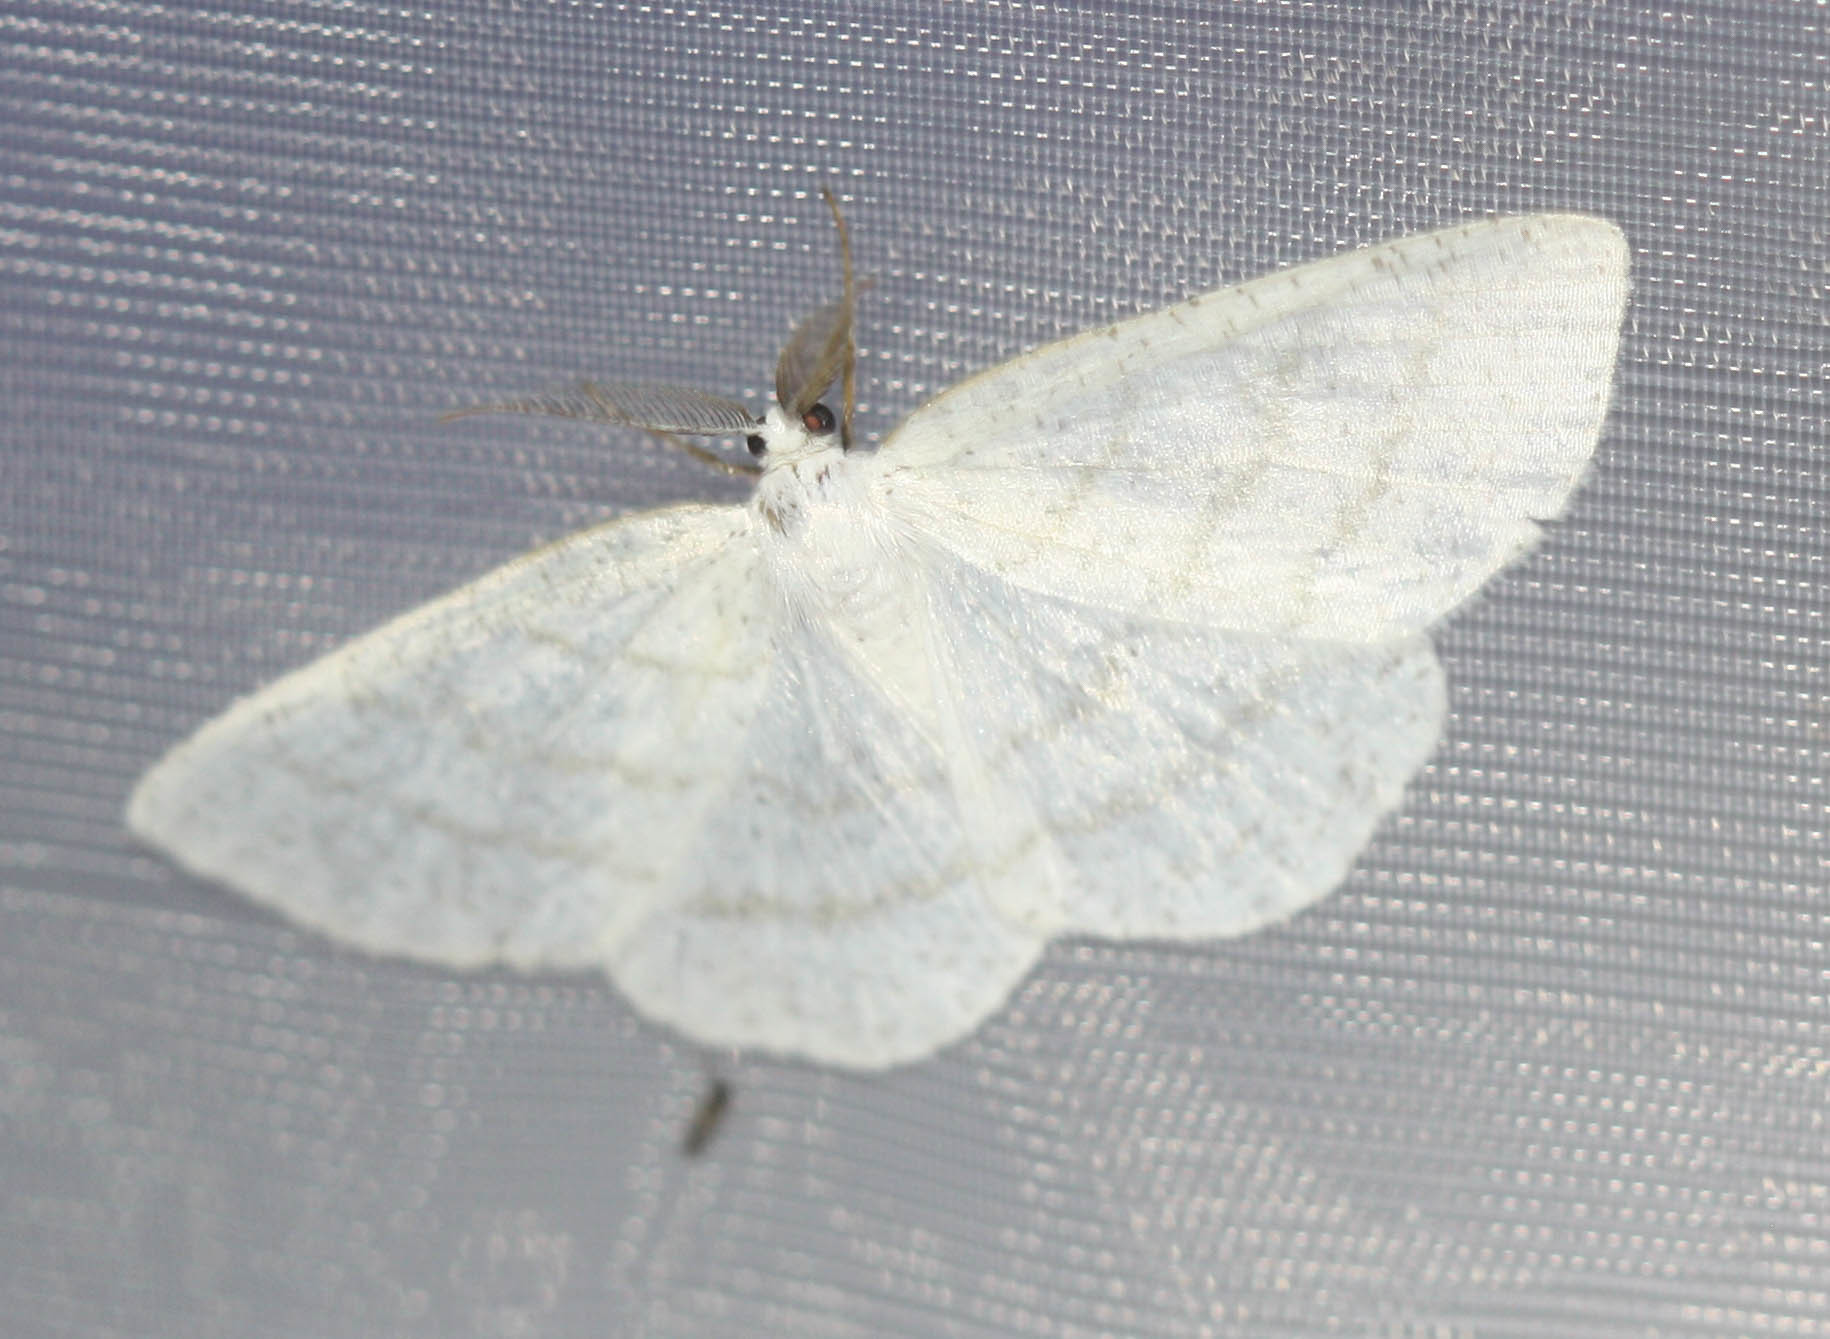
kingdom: Animalia
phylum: Arthropoda
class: Insecta
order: Lepidoptera
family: Geometridae
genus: Cabera
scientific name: Cabera pusaria
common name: Common white wave
